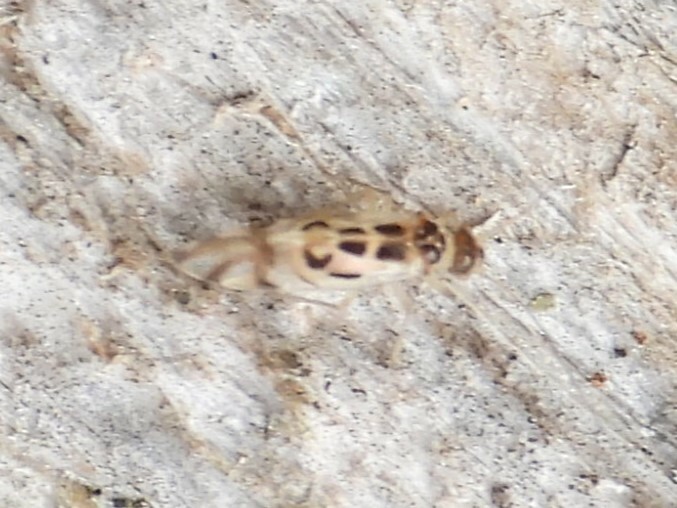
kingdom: Animalia
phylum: Arthropoda
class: Insecta
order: Psocodea
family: Stenopsocidae
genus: Graphopsocus
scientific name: Graphopsocus cruciatus
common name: Lizard bark louse
